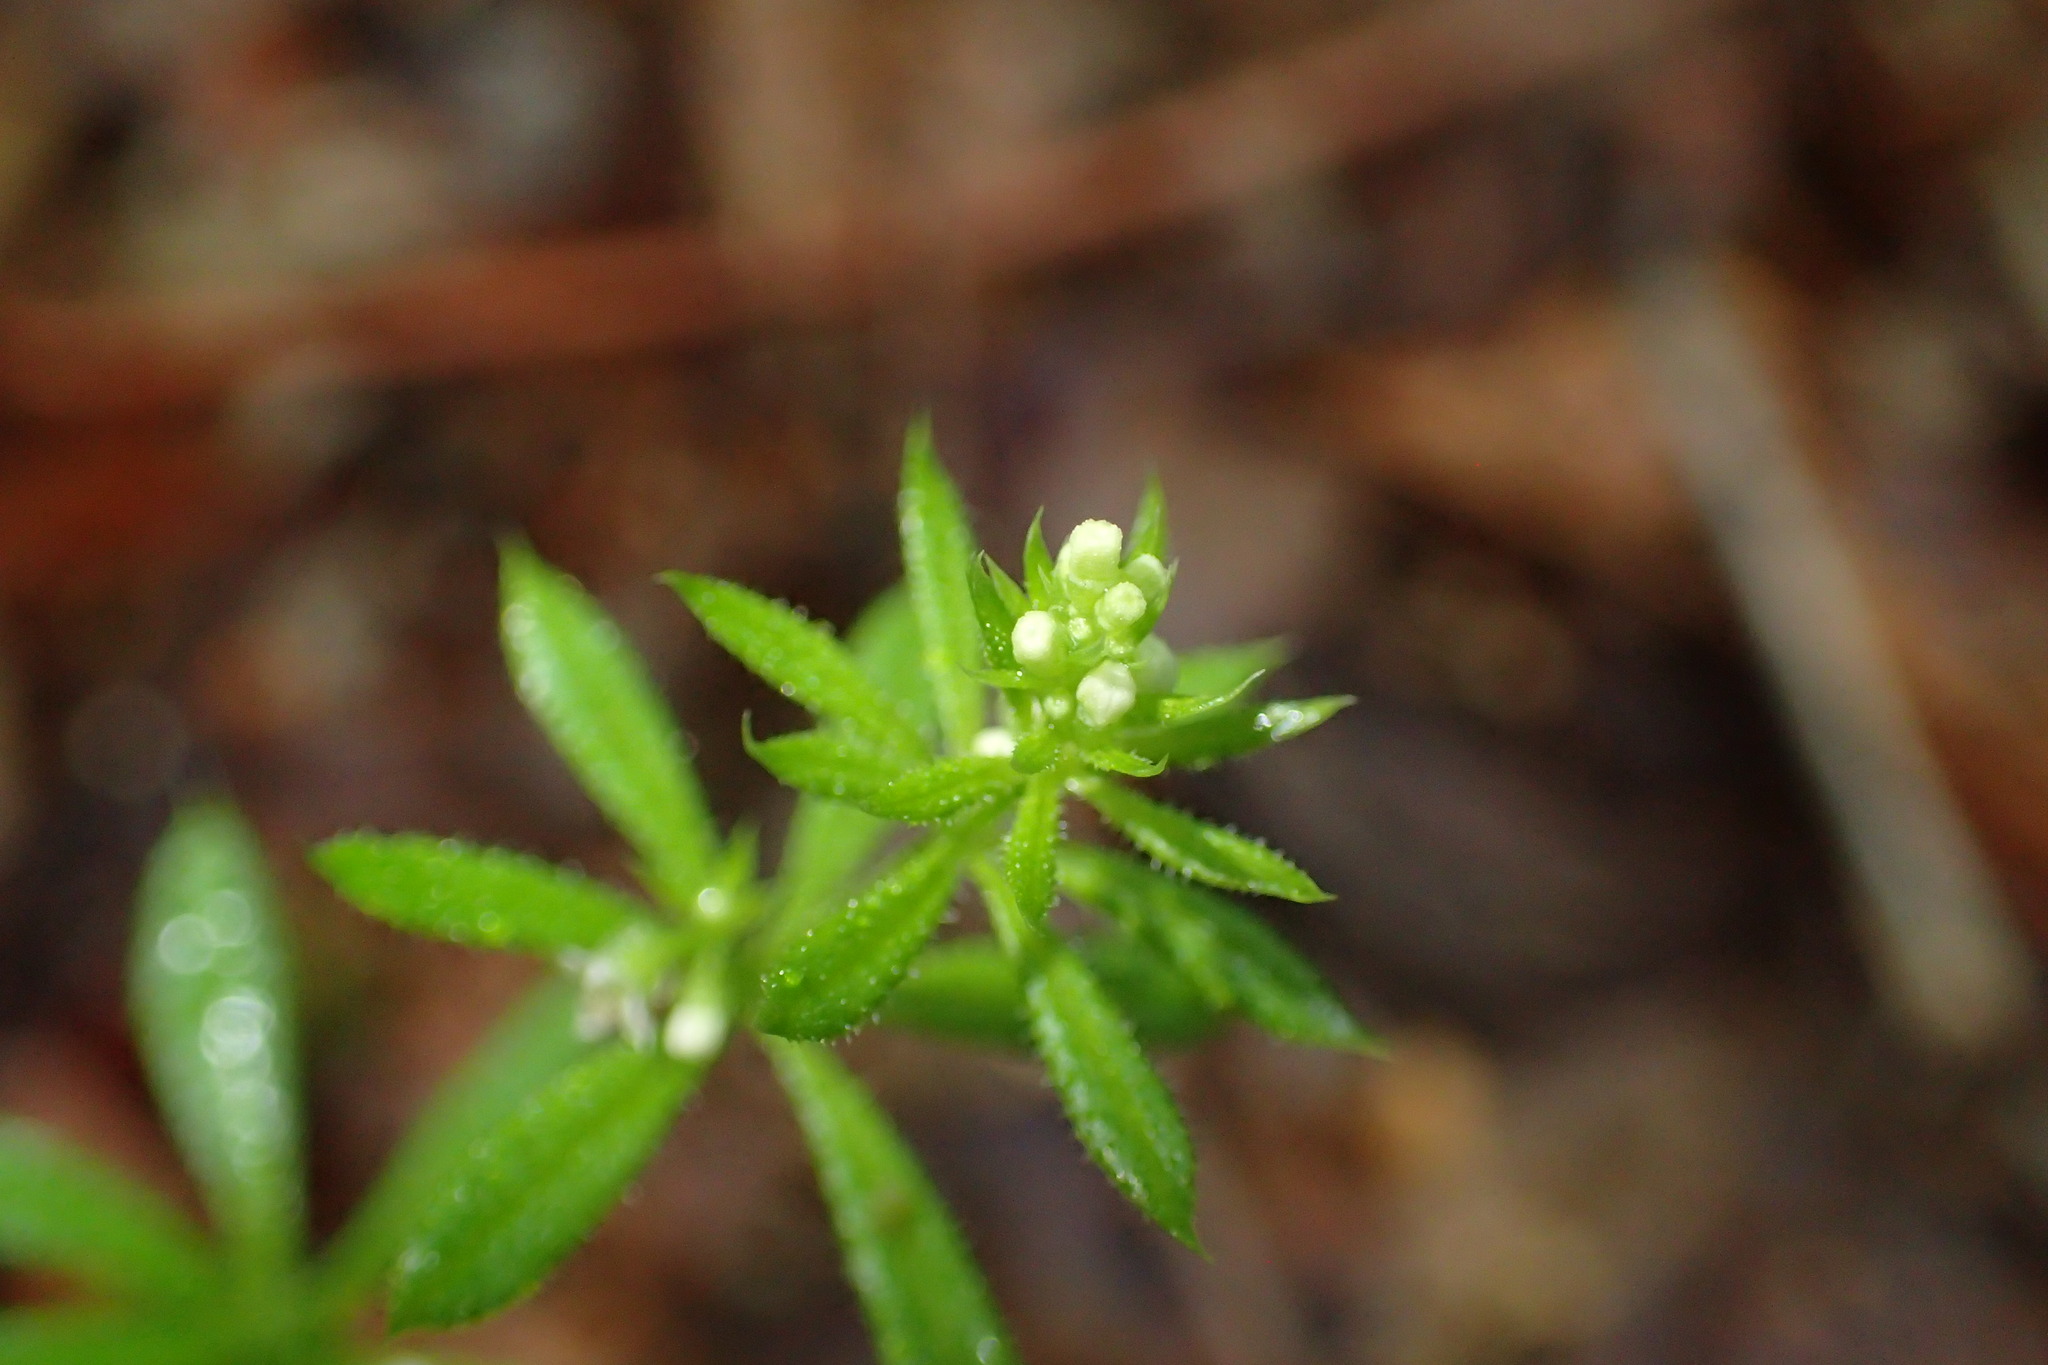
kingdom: Plantae
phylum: Tracheophyta
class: Magnoliopsida
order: Gentianales
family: Rubiaceae
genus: Galium
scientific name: Galium aparine
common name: Cleavers
